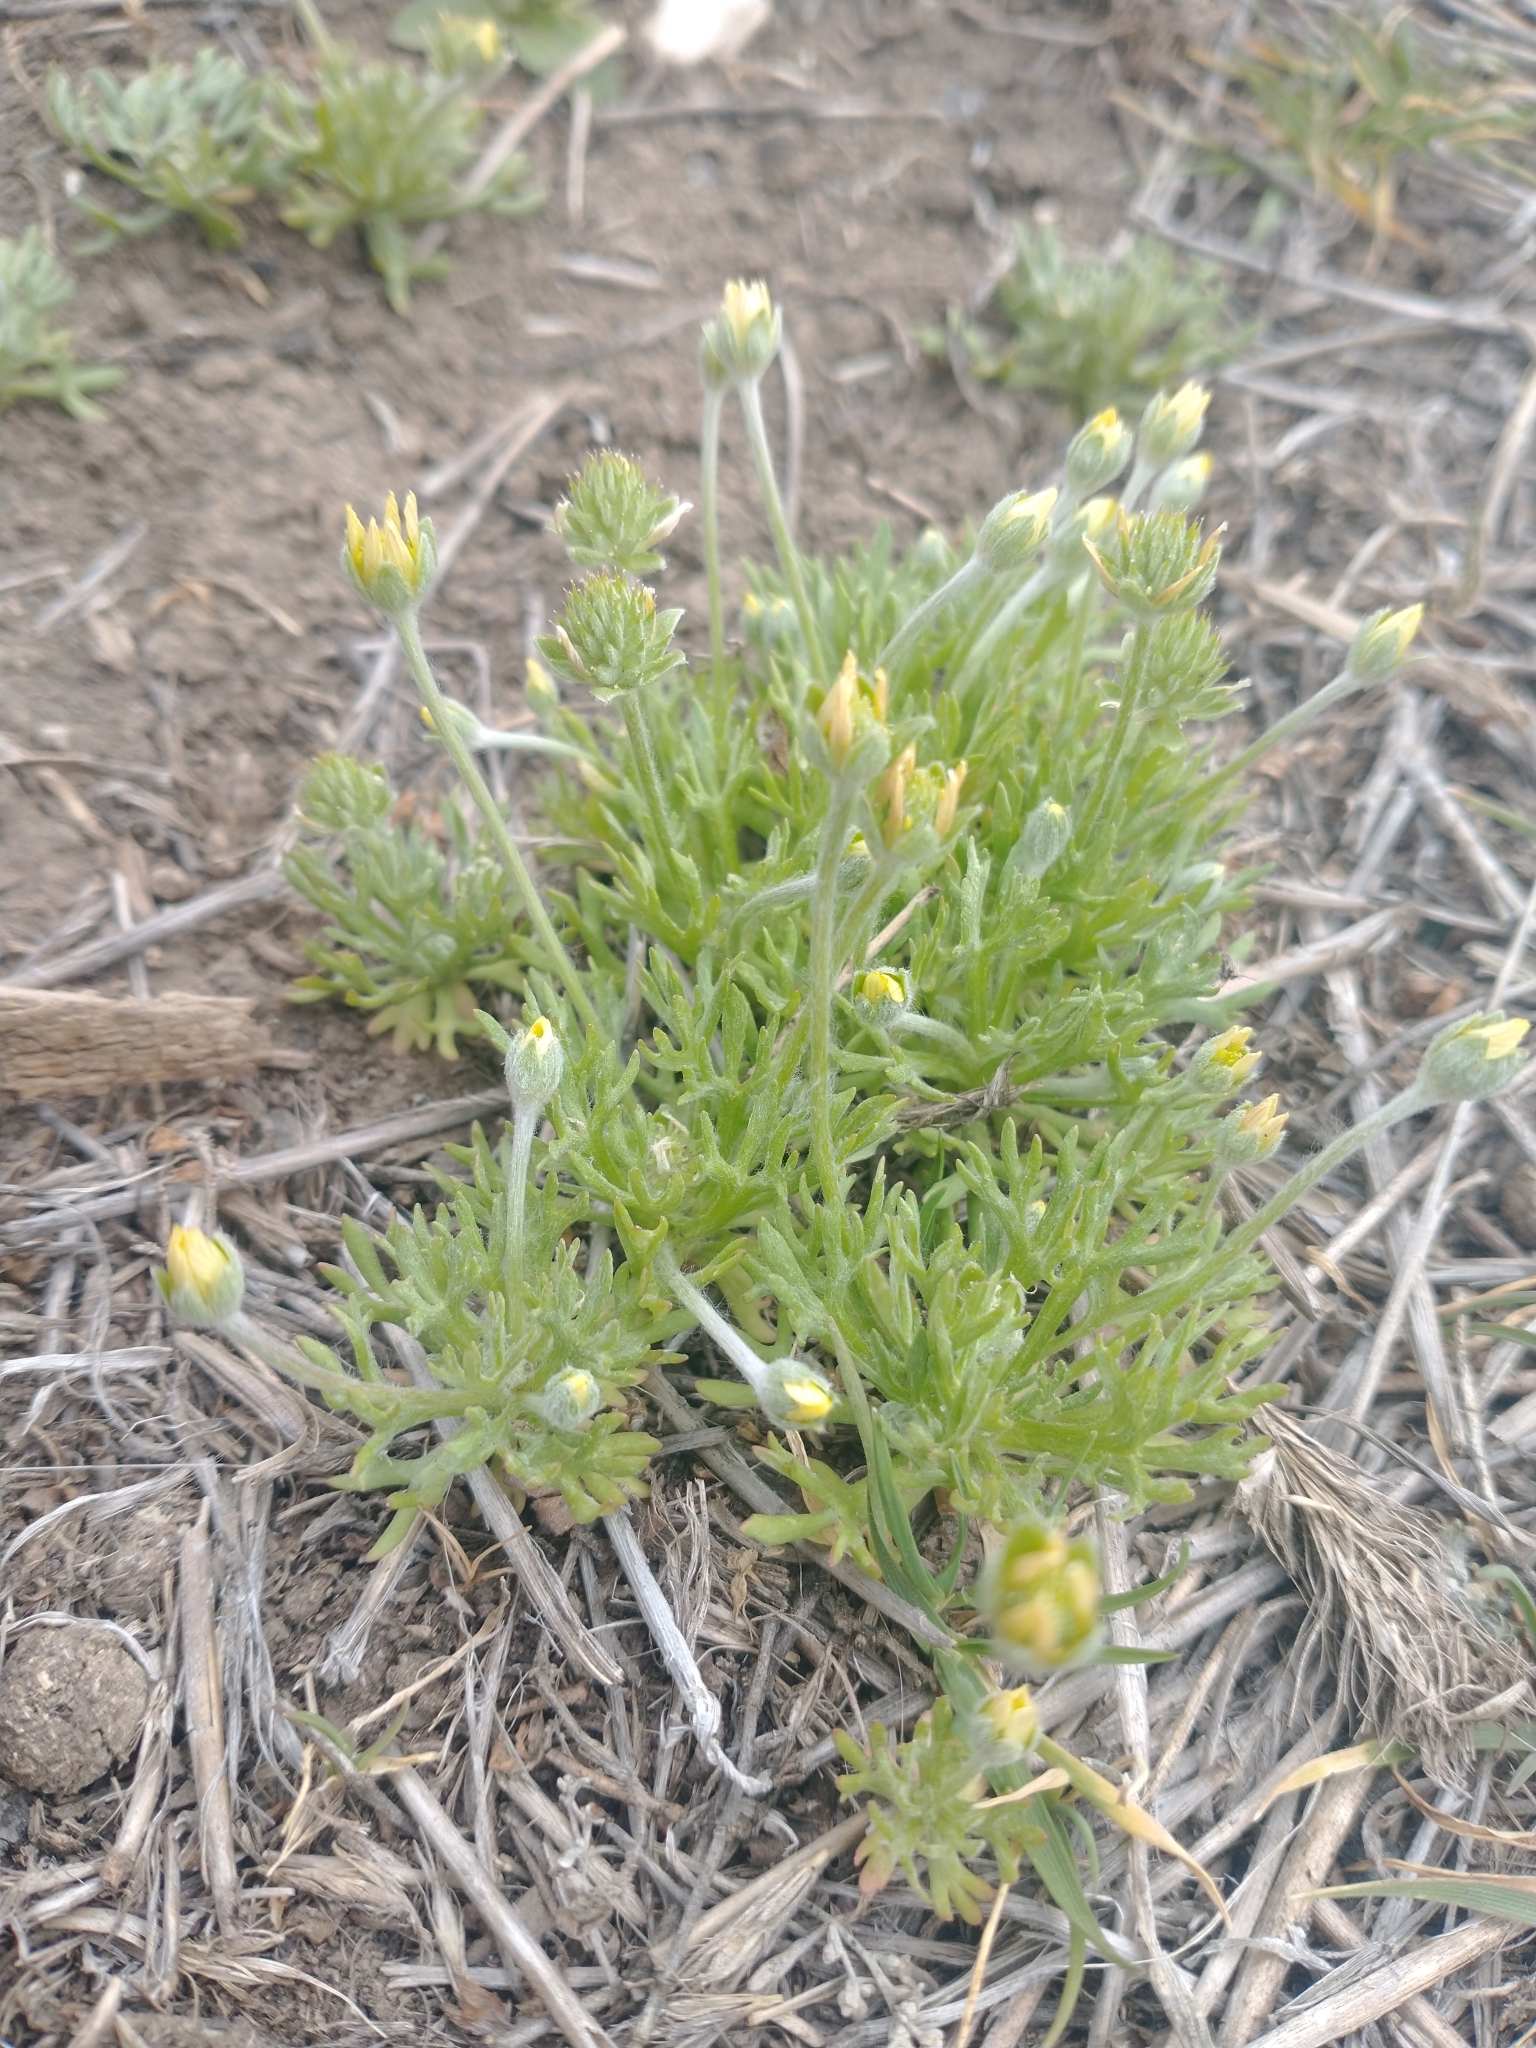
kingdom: Plantae
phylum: Tracheophyta
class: Magnoliopsida
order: Ranunculales
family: Ranunculaceae
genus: Ceratocephala
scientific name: Ceratocephala orthoceras
